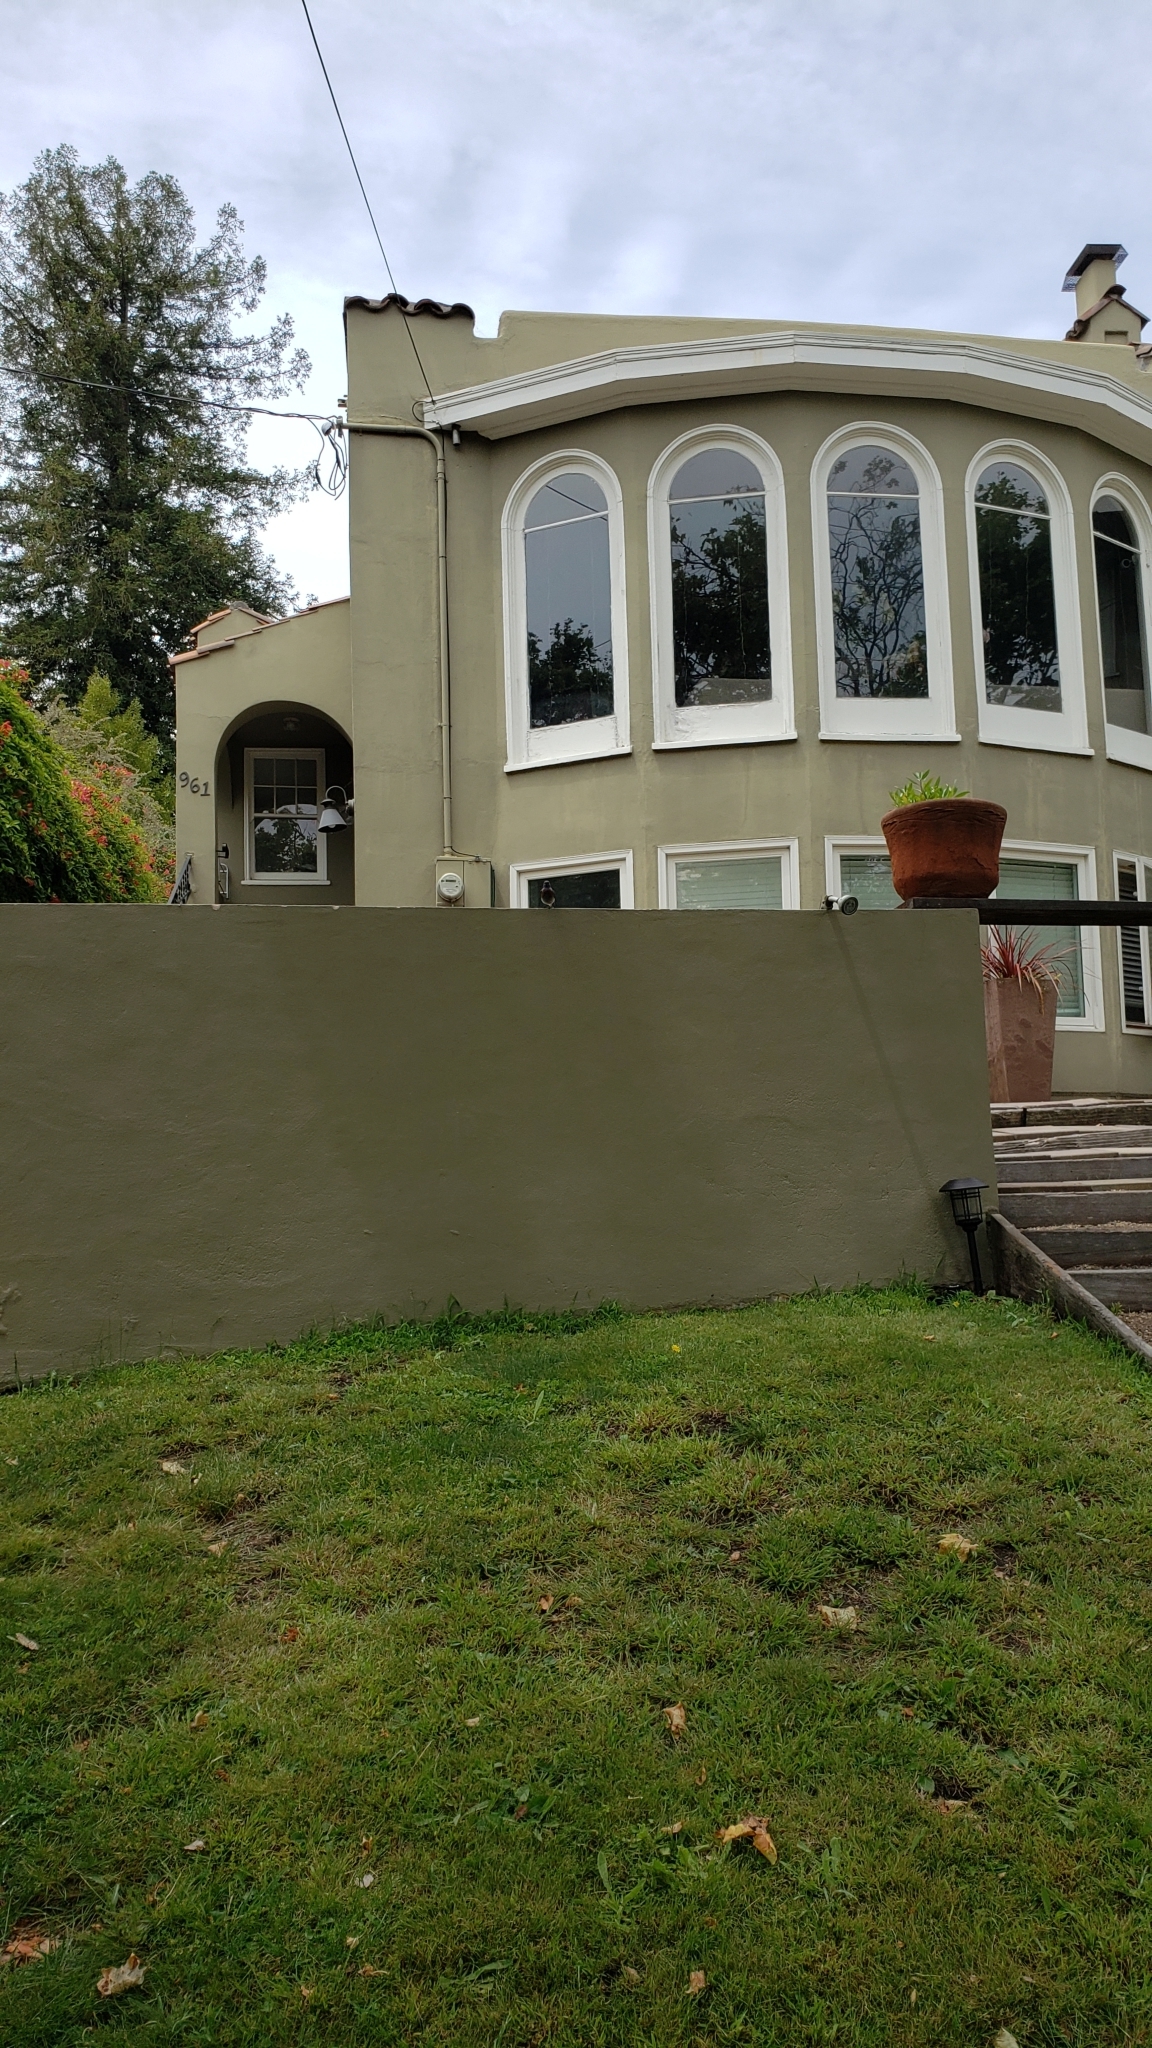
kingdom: Animalia
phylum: Chordata
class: Aves
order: Passeriformes
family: Turdidae
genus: Sialia
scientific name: Sialia mexicana
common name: Western bluebird
